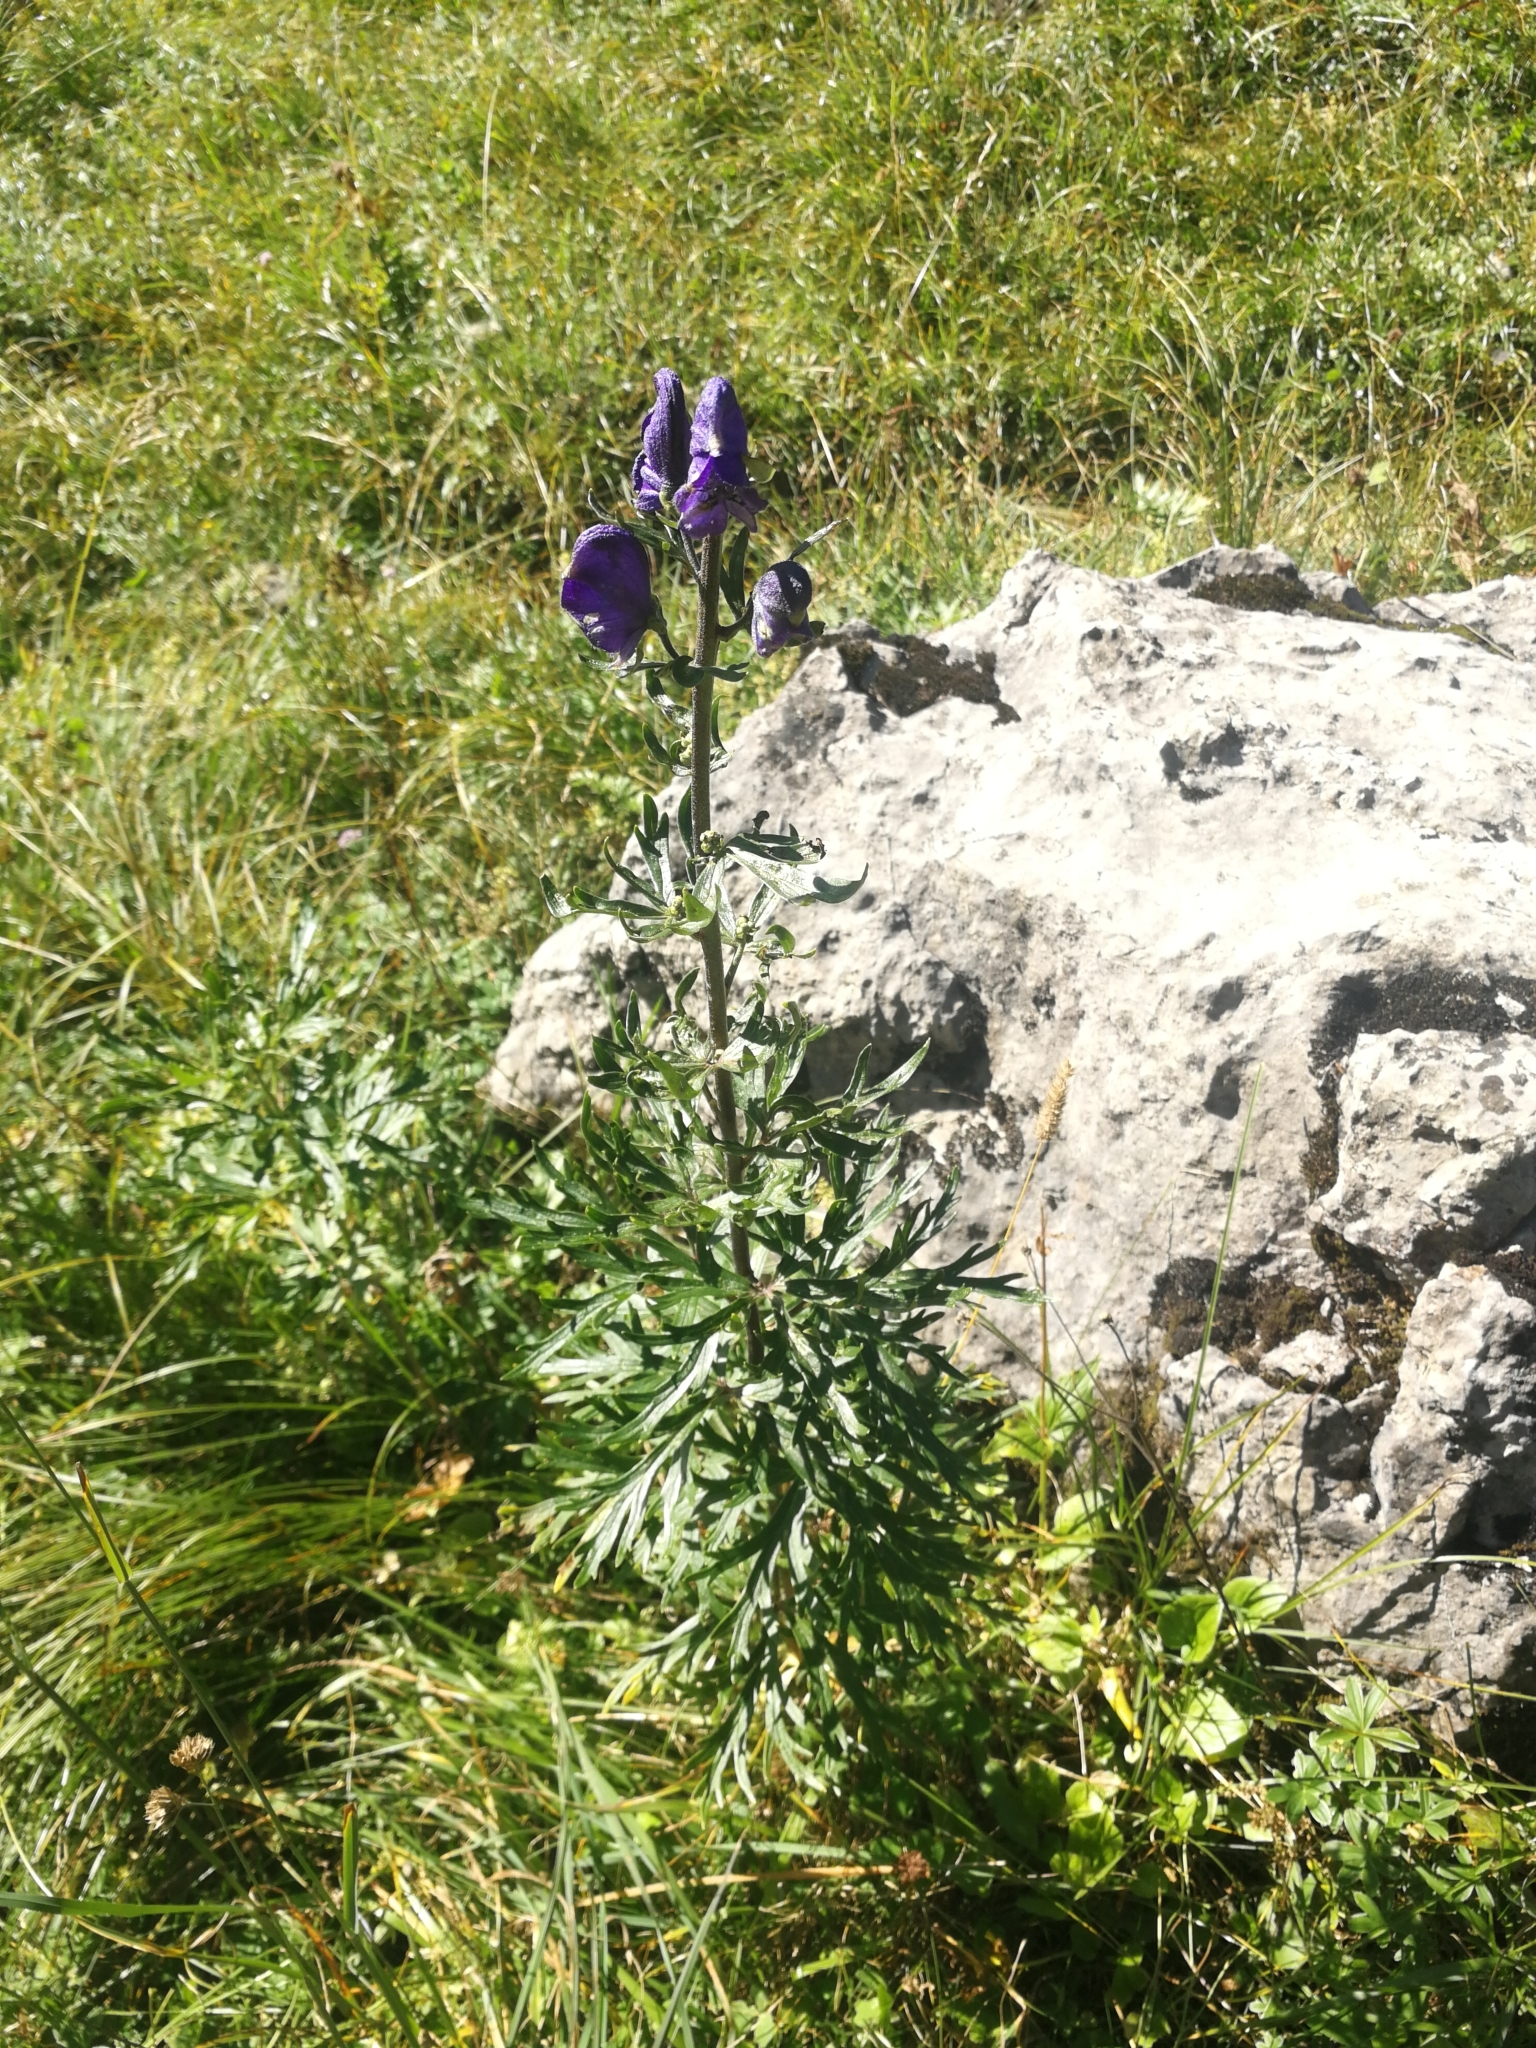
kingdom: Plantae
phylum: Tracheophyta
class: Magnoliopsida
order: Ranunculales
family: Ranunculaceae
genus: Aconitum
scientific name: Aconitum napellus
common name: Garden monkshood
